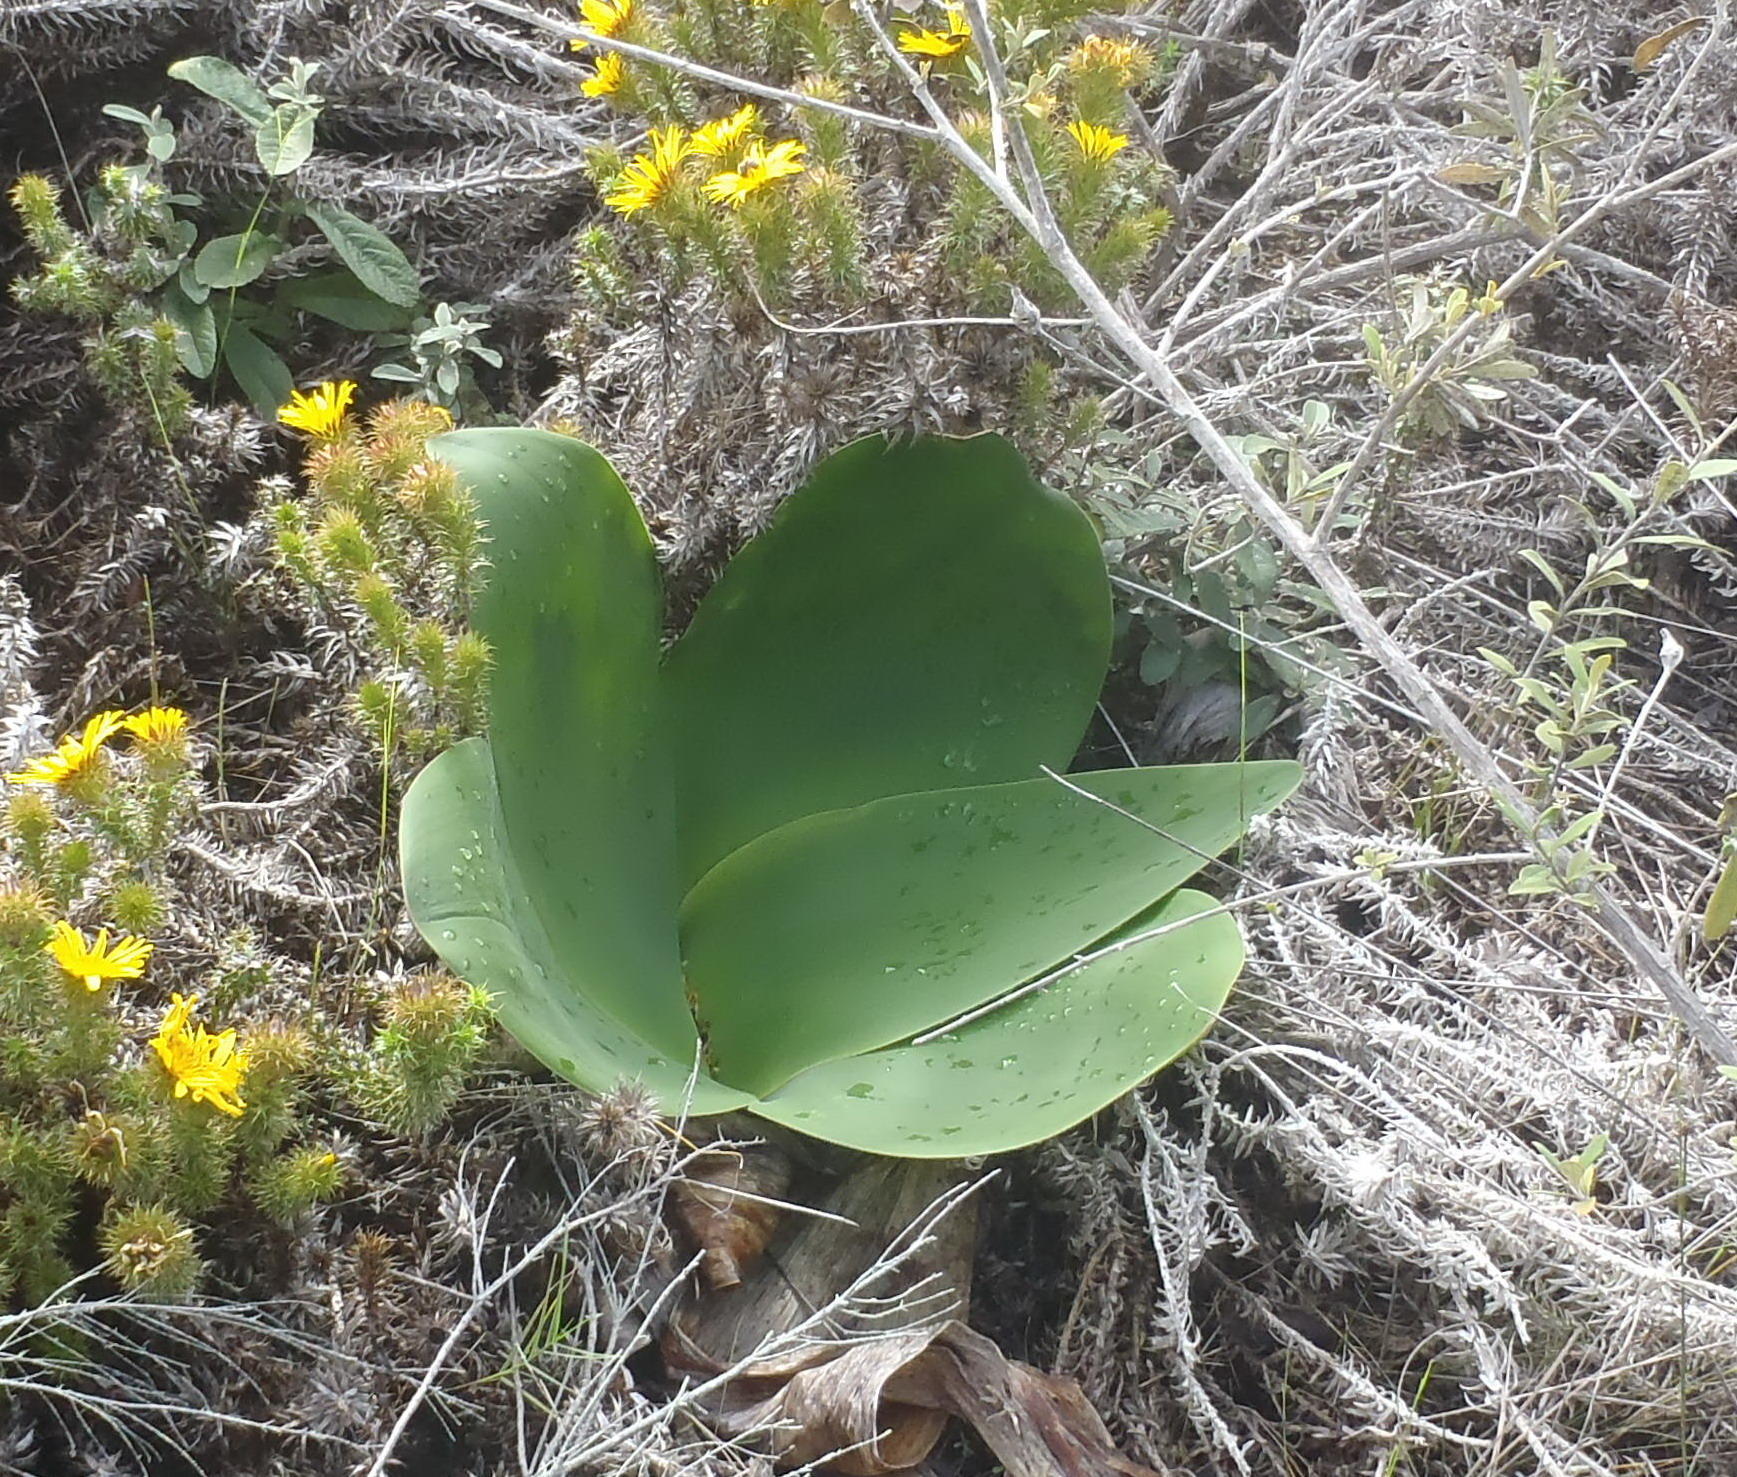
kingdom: Plantae
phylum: Tracheophyta
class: Liliopsida
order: Asparagales
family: Amaryllidaceae
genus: Brunsvigia
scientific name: Brunsvigia orientalis
